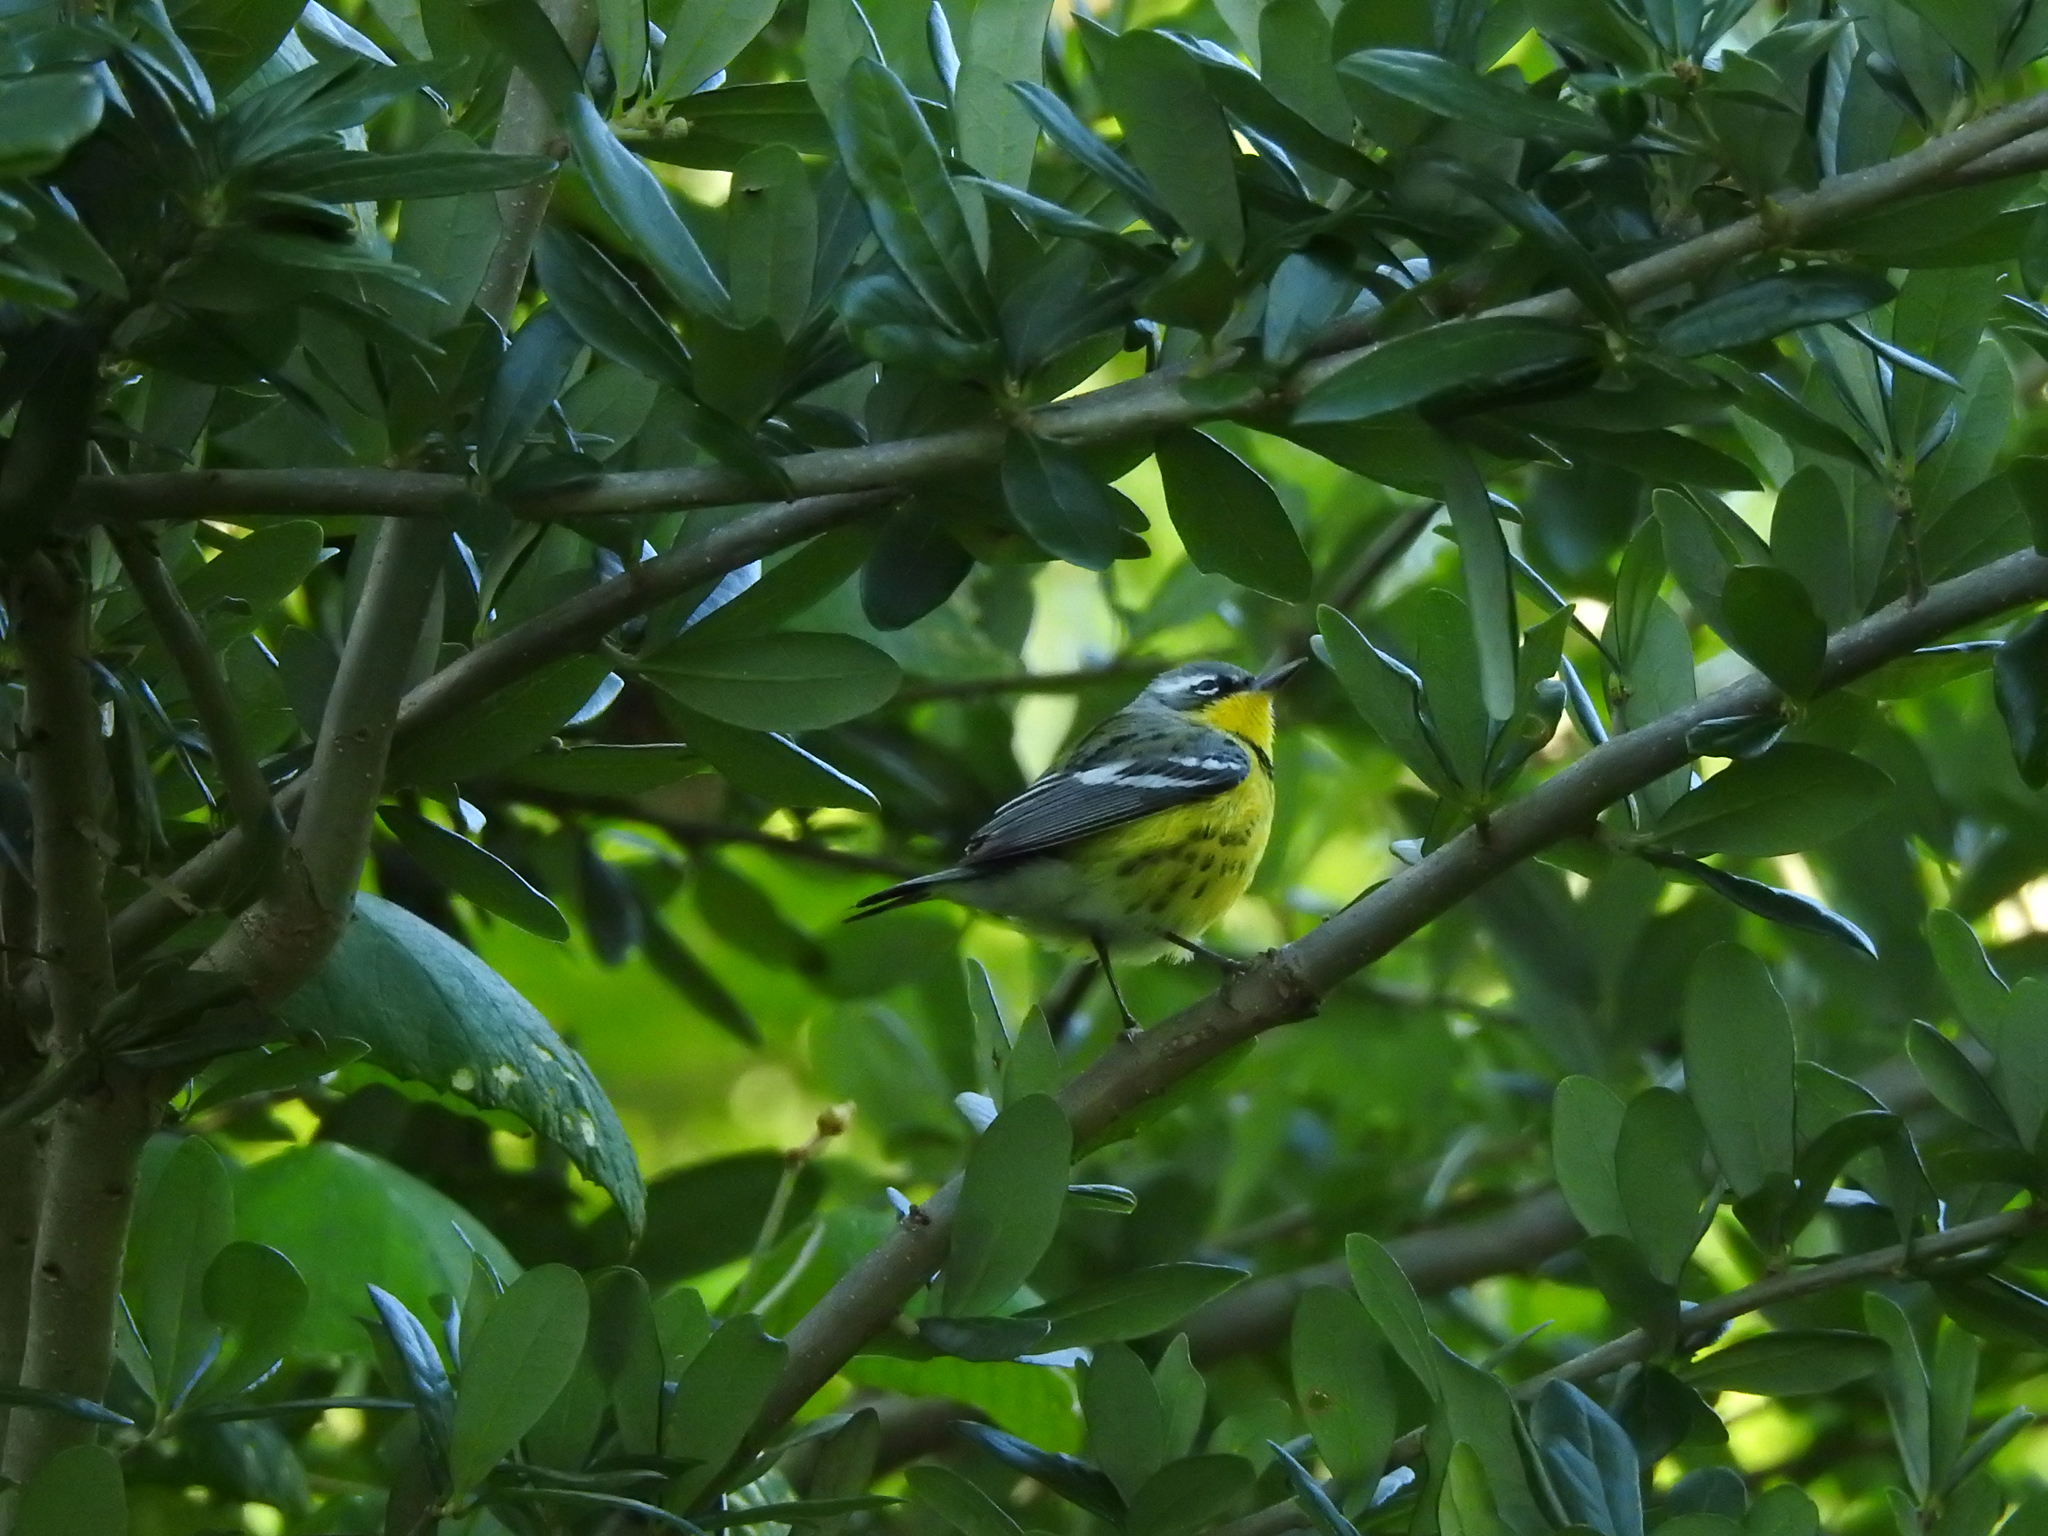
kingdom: Animalia
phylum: Chordata
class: Aves
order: Passeriformes
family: Parulidae
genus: Setophaga
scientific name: Setophaga magnolia
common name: Magnolia warbler
